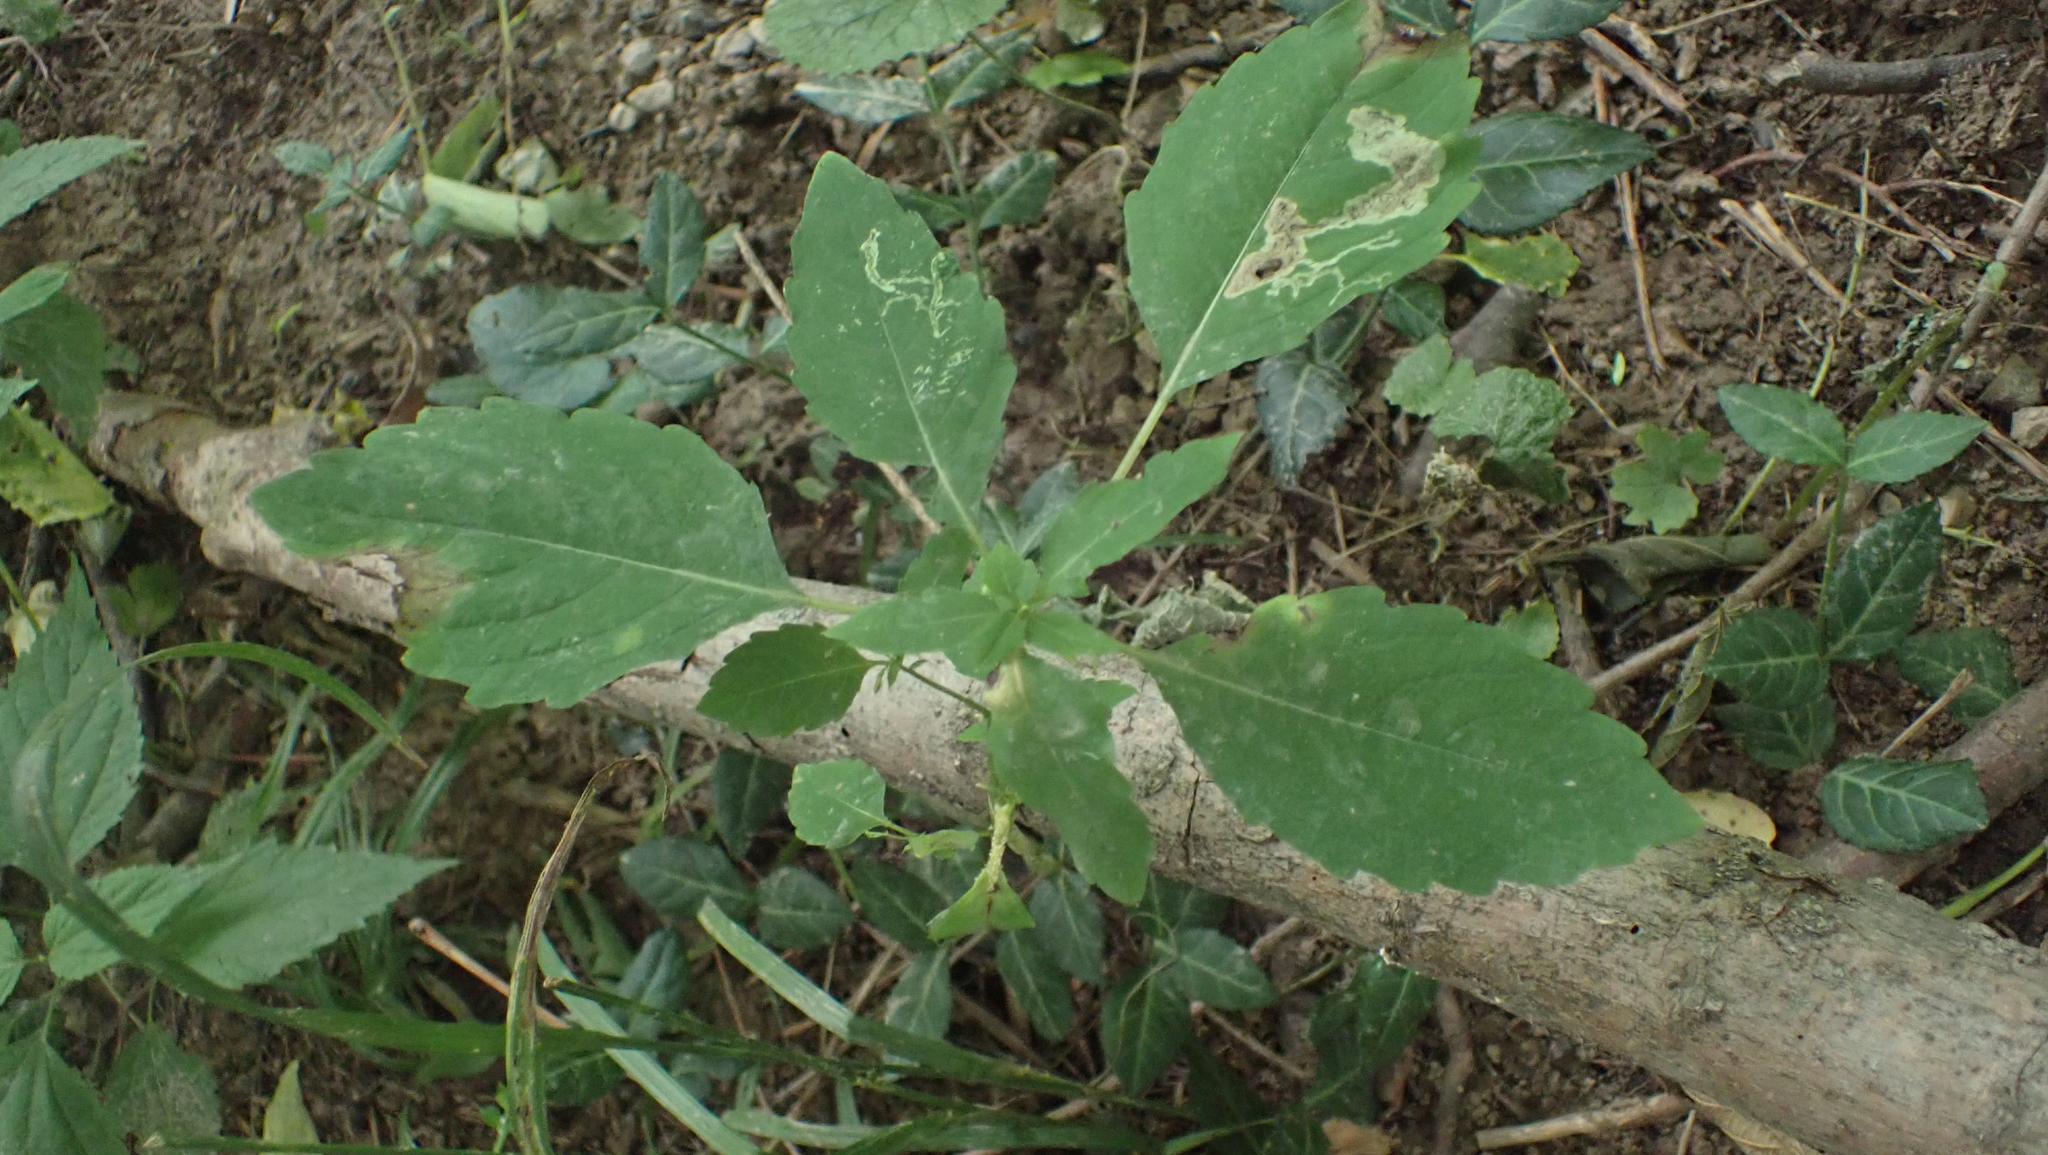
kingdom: Plantae
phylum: Tracheophyta
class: Magnoliopsida
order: Ericales
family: Balsaminaceae
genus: Impatiens
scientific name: Impatiens capensis
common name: Orange balsam
